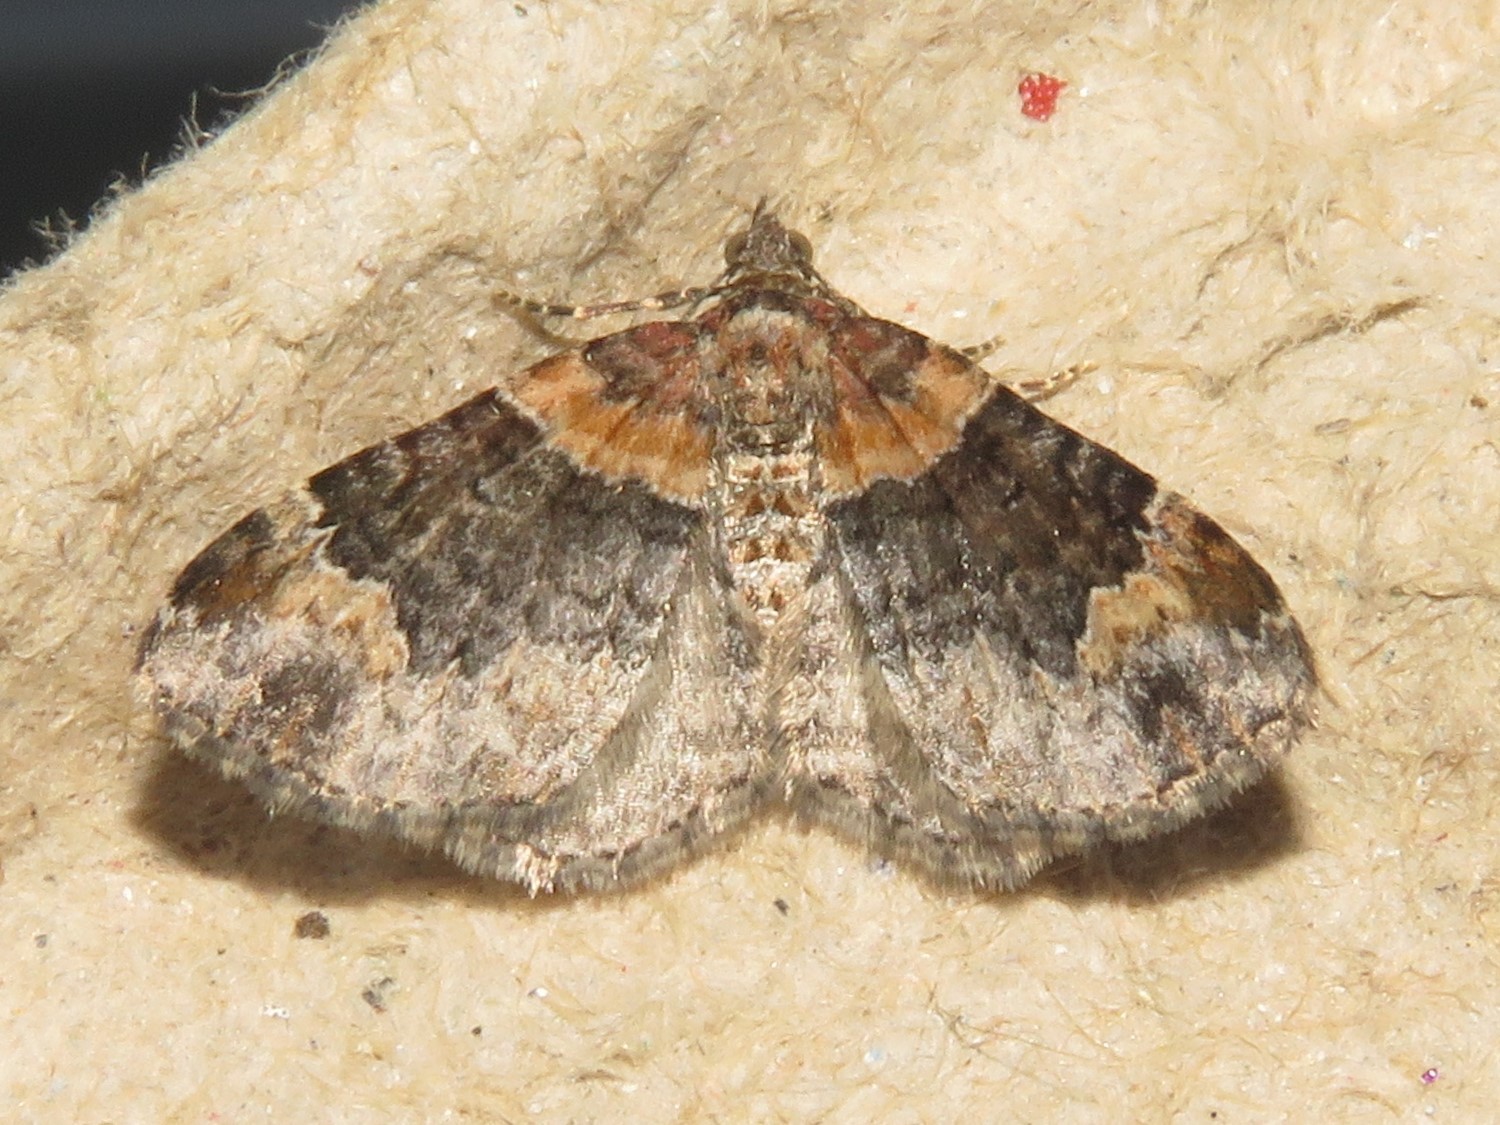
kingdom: Animalia
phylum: Arthropoda
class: Insecta
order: Lepidoptera
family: Geometridae
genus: Xanthorhoe
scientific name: Xanthorhoe ferrugata
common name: Dark-barred twin-spot carpet
